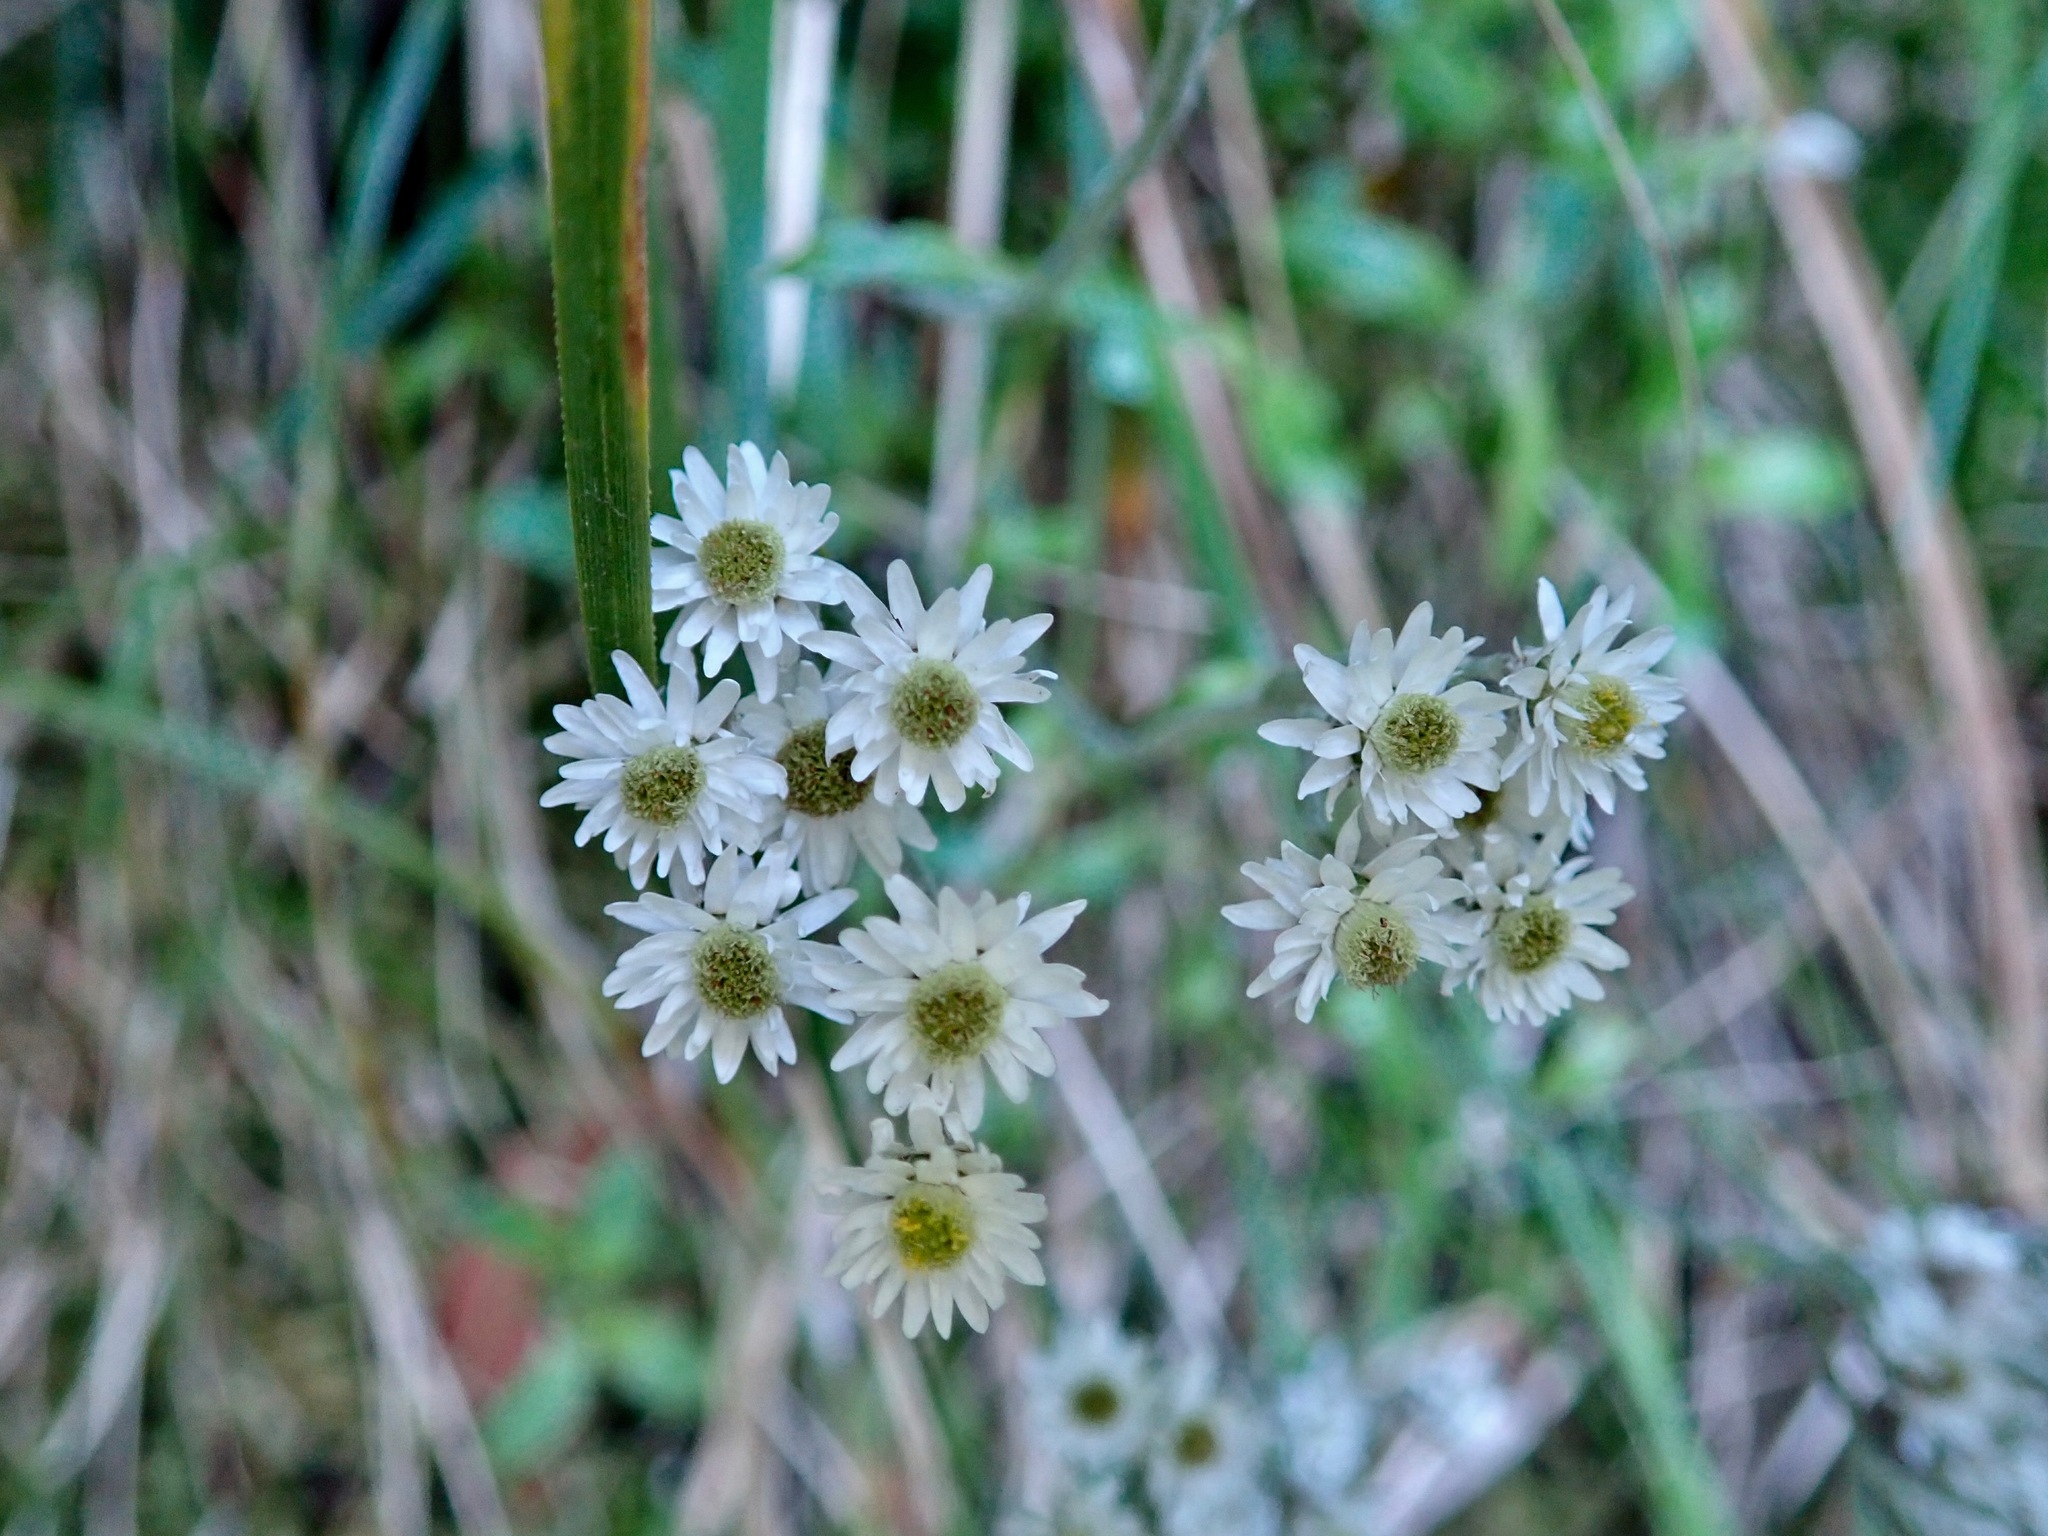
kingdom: Plantae
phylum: Tracheophyta
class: Magnoliopsida
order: Asterales
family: Asteraceae
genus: Anaphalioides
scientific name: Anaphalioides trinervis
